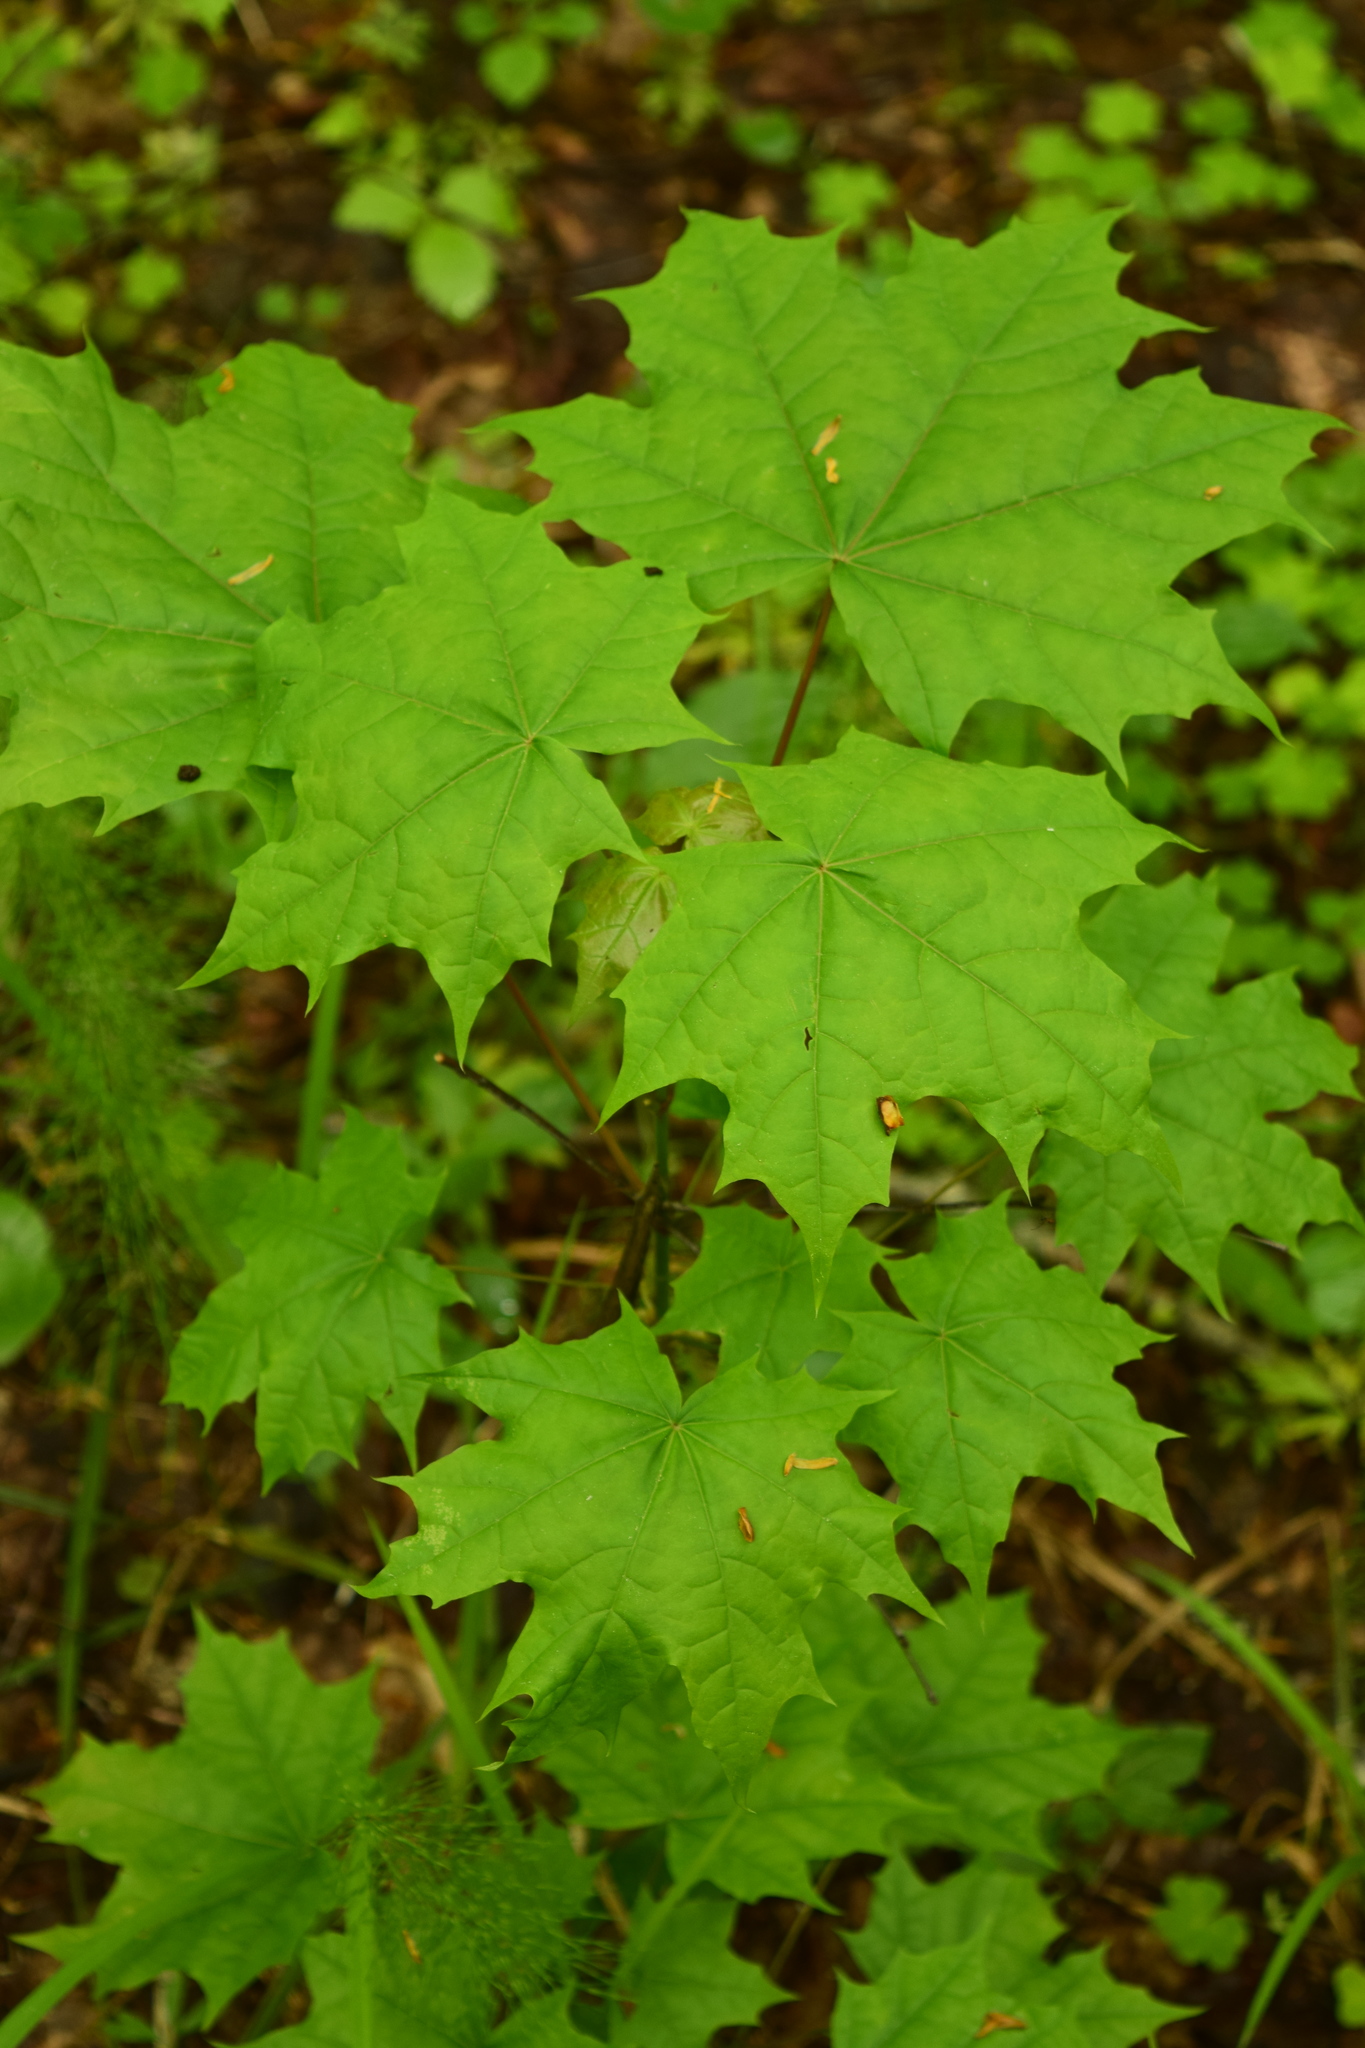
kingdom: Plantae
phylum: Tracheophyta
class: Magnoliopsida
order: Sapindales
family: Sapindaceae
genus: Acer
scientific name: Acer platanoides
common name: Norway maple
